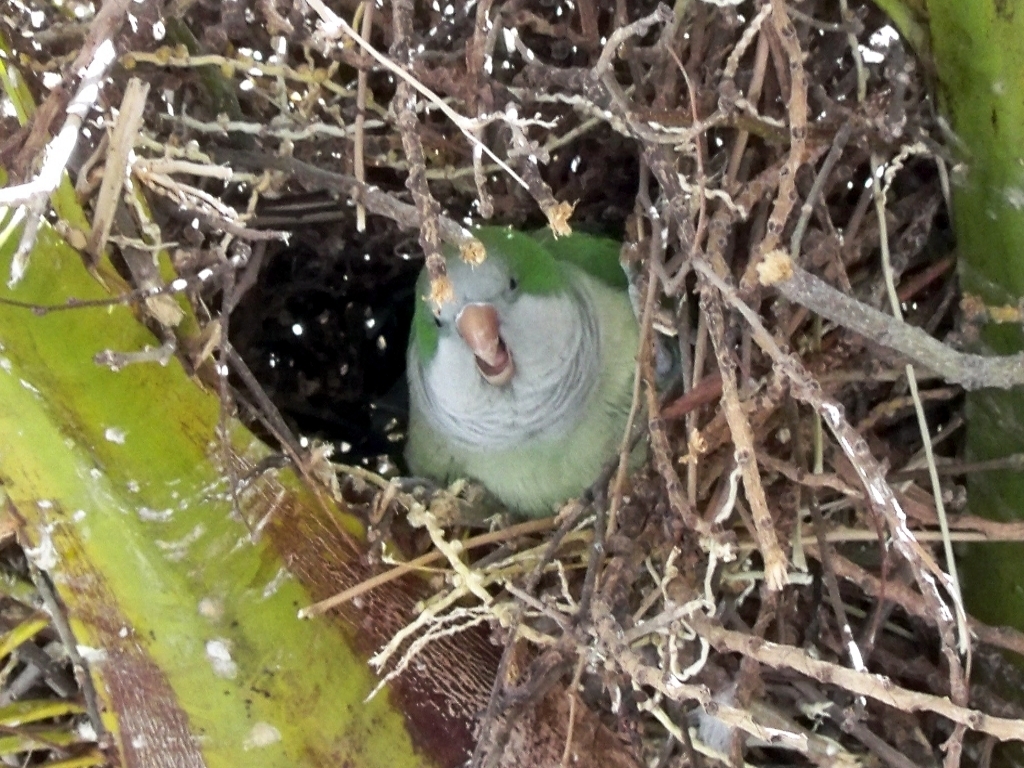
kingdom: Animalia
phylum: Chordata
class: Aves
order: Psittaciformes
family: Psittacidae
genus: Myiopsitta
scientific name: Myiopsitta monachus
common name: Monk parakeet
